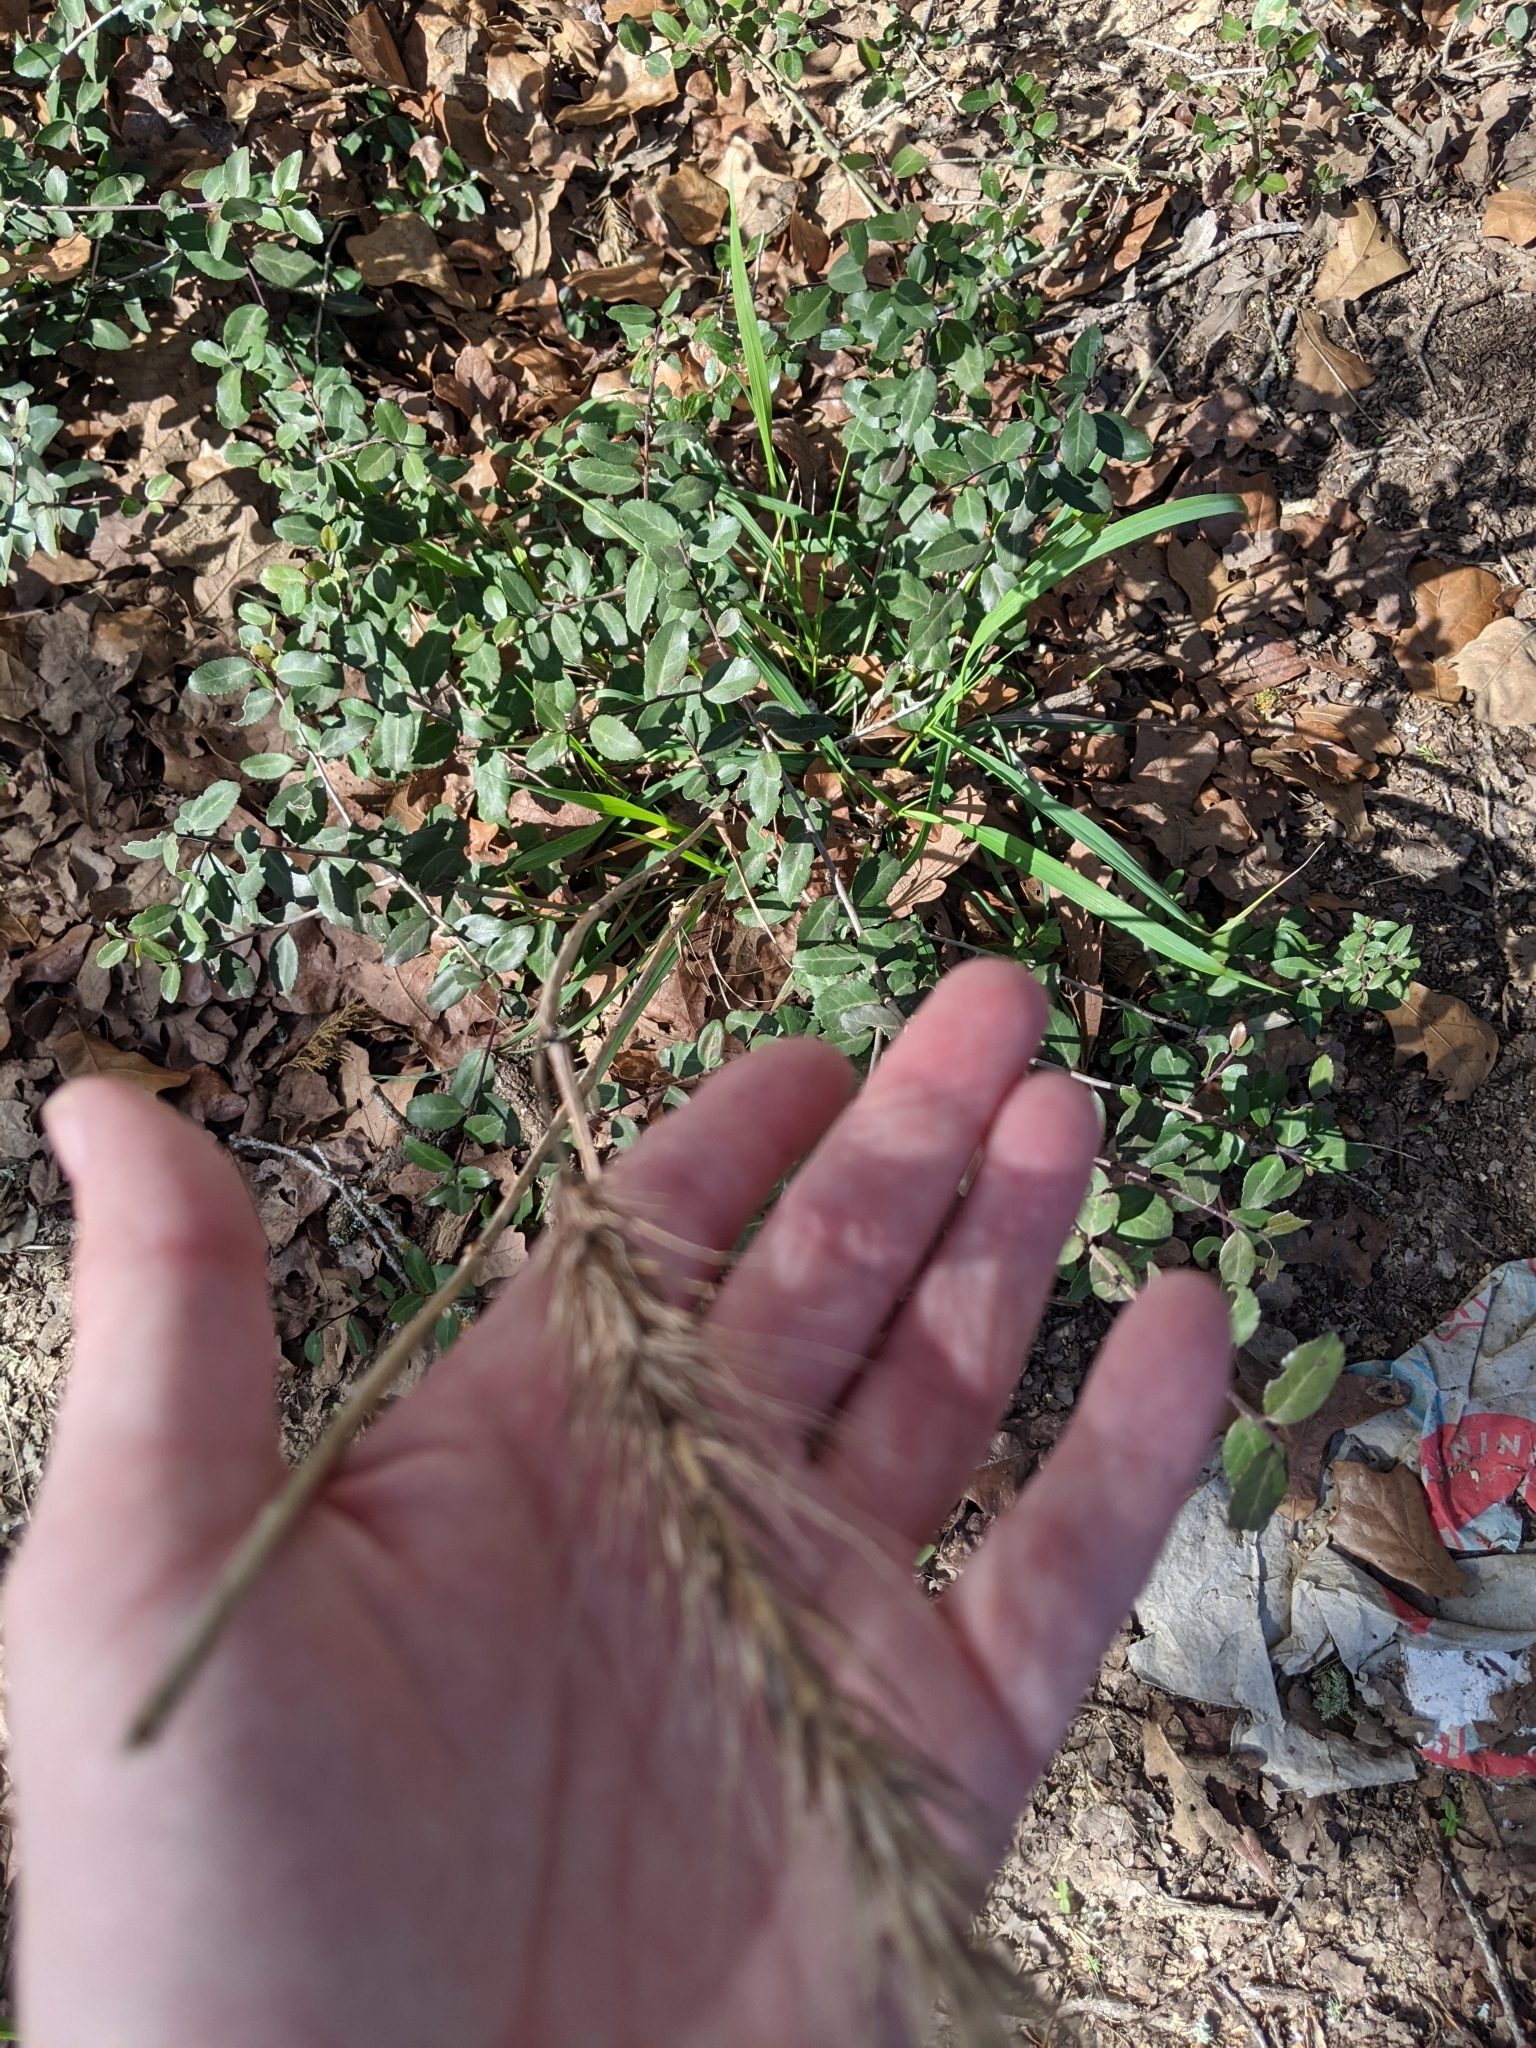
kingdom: Plantae
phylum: Tracheophyta
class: Liliopsida
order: Poales
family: Poaceae
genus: Elymus
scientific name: Elymus virginicus
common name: Common eastern wildrye
